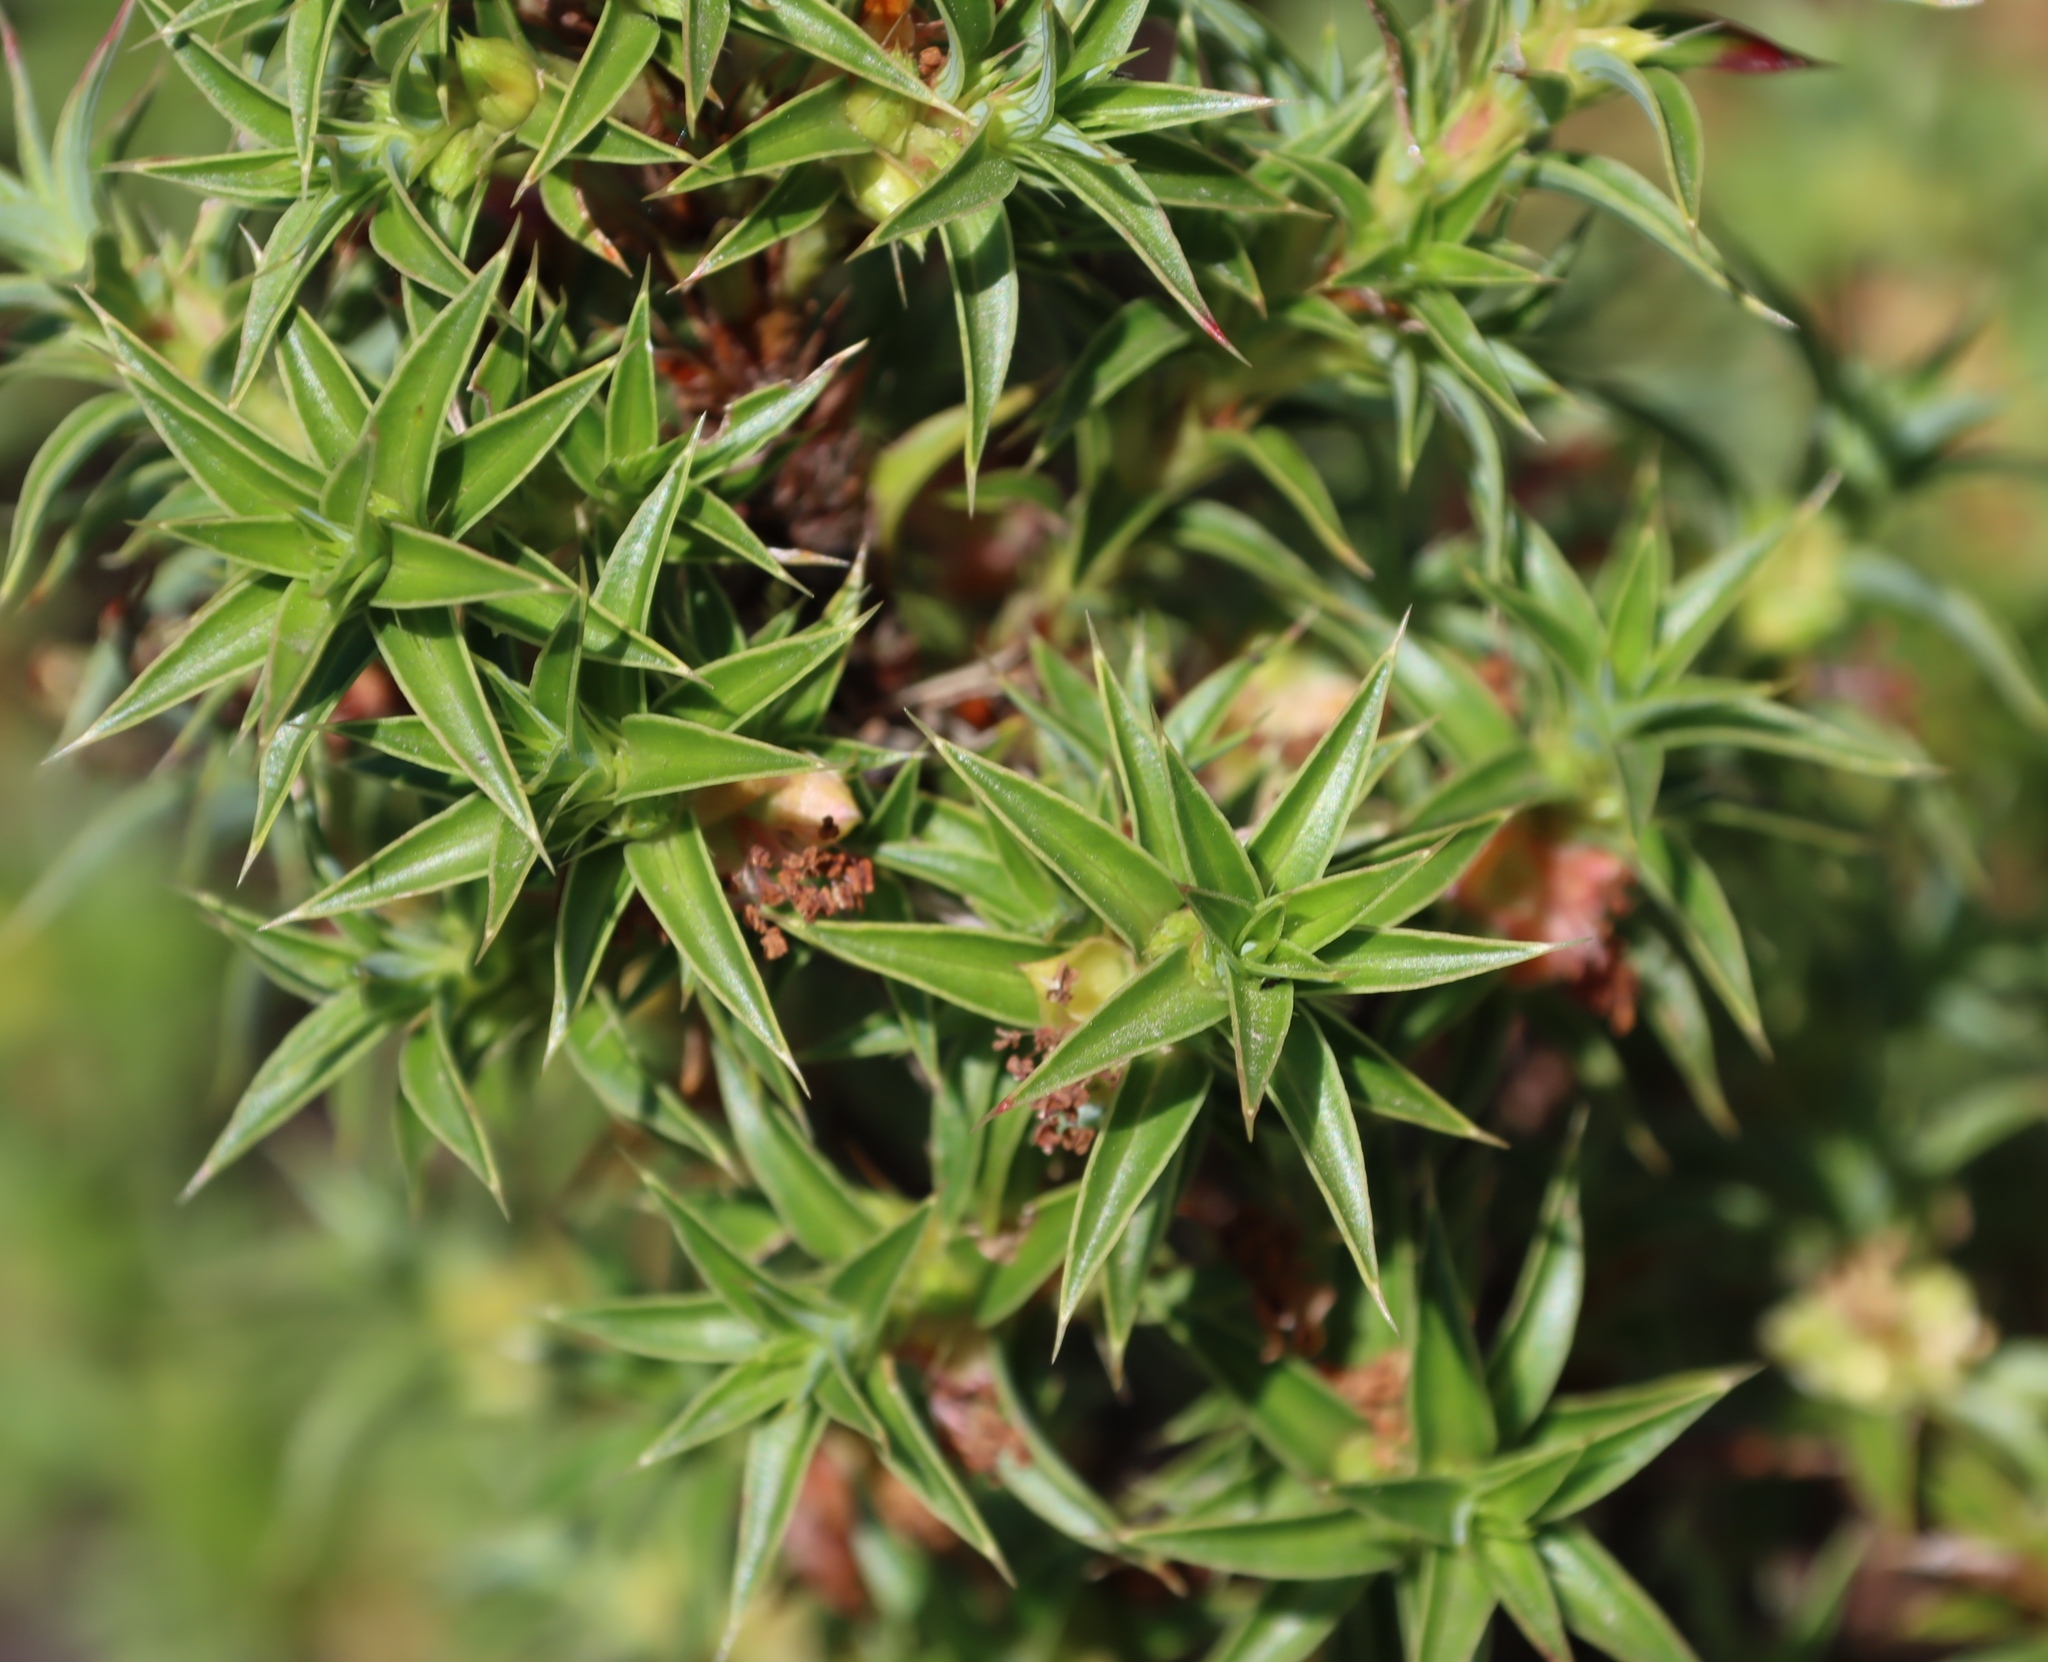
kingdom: Plantae
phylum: Tracheophyta
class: Magnoliopsida
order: Rosales
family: Rosaceae
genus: Cliffortia
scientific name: Cliffortia ruscifolia
